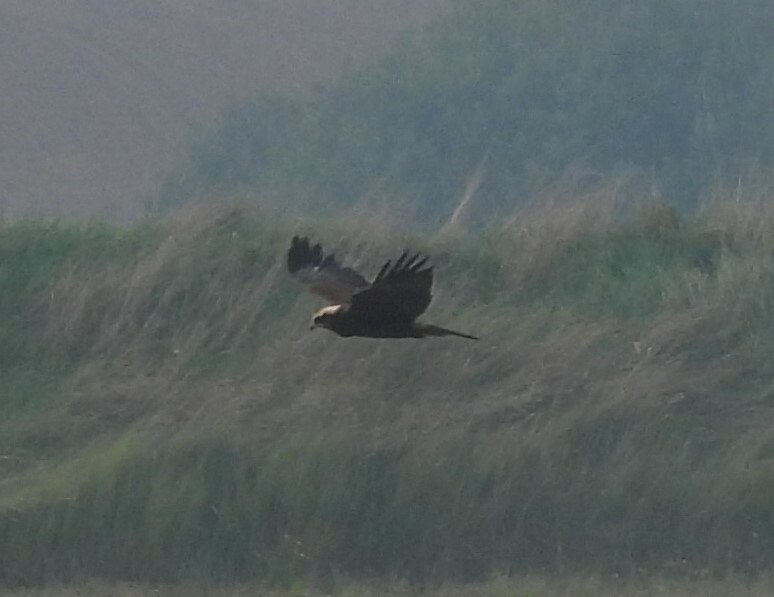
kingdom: Animalia
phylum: Chordata
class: Aves
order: Accipitriformes
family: Accipitridae
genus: Circus
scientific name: Circus aeruginosus
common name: Western marsh harrier
